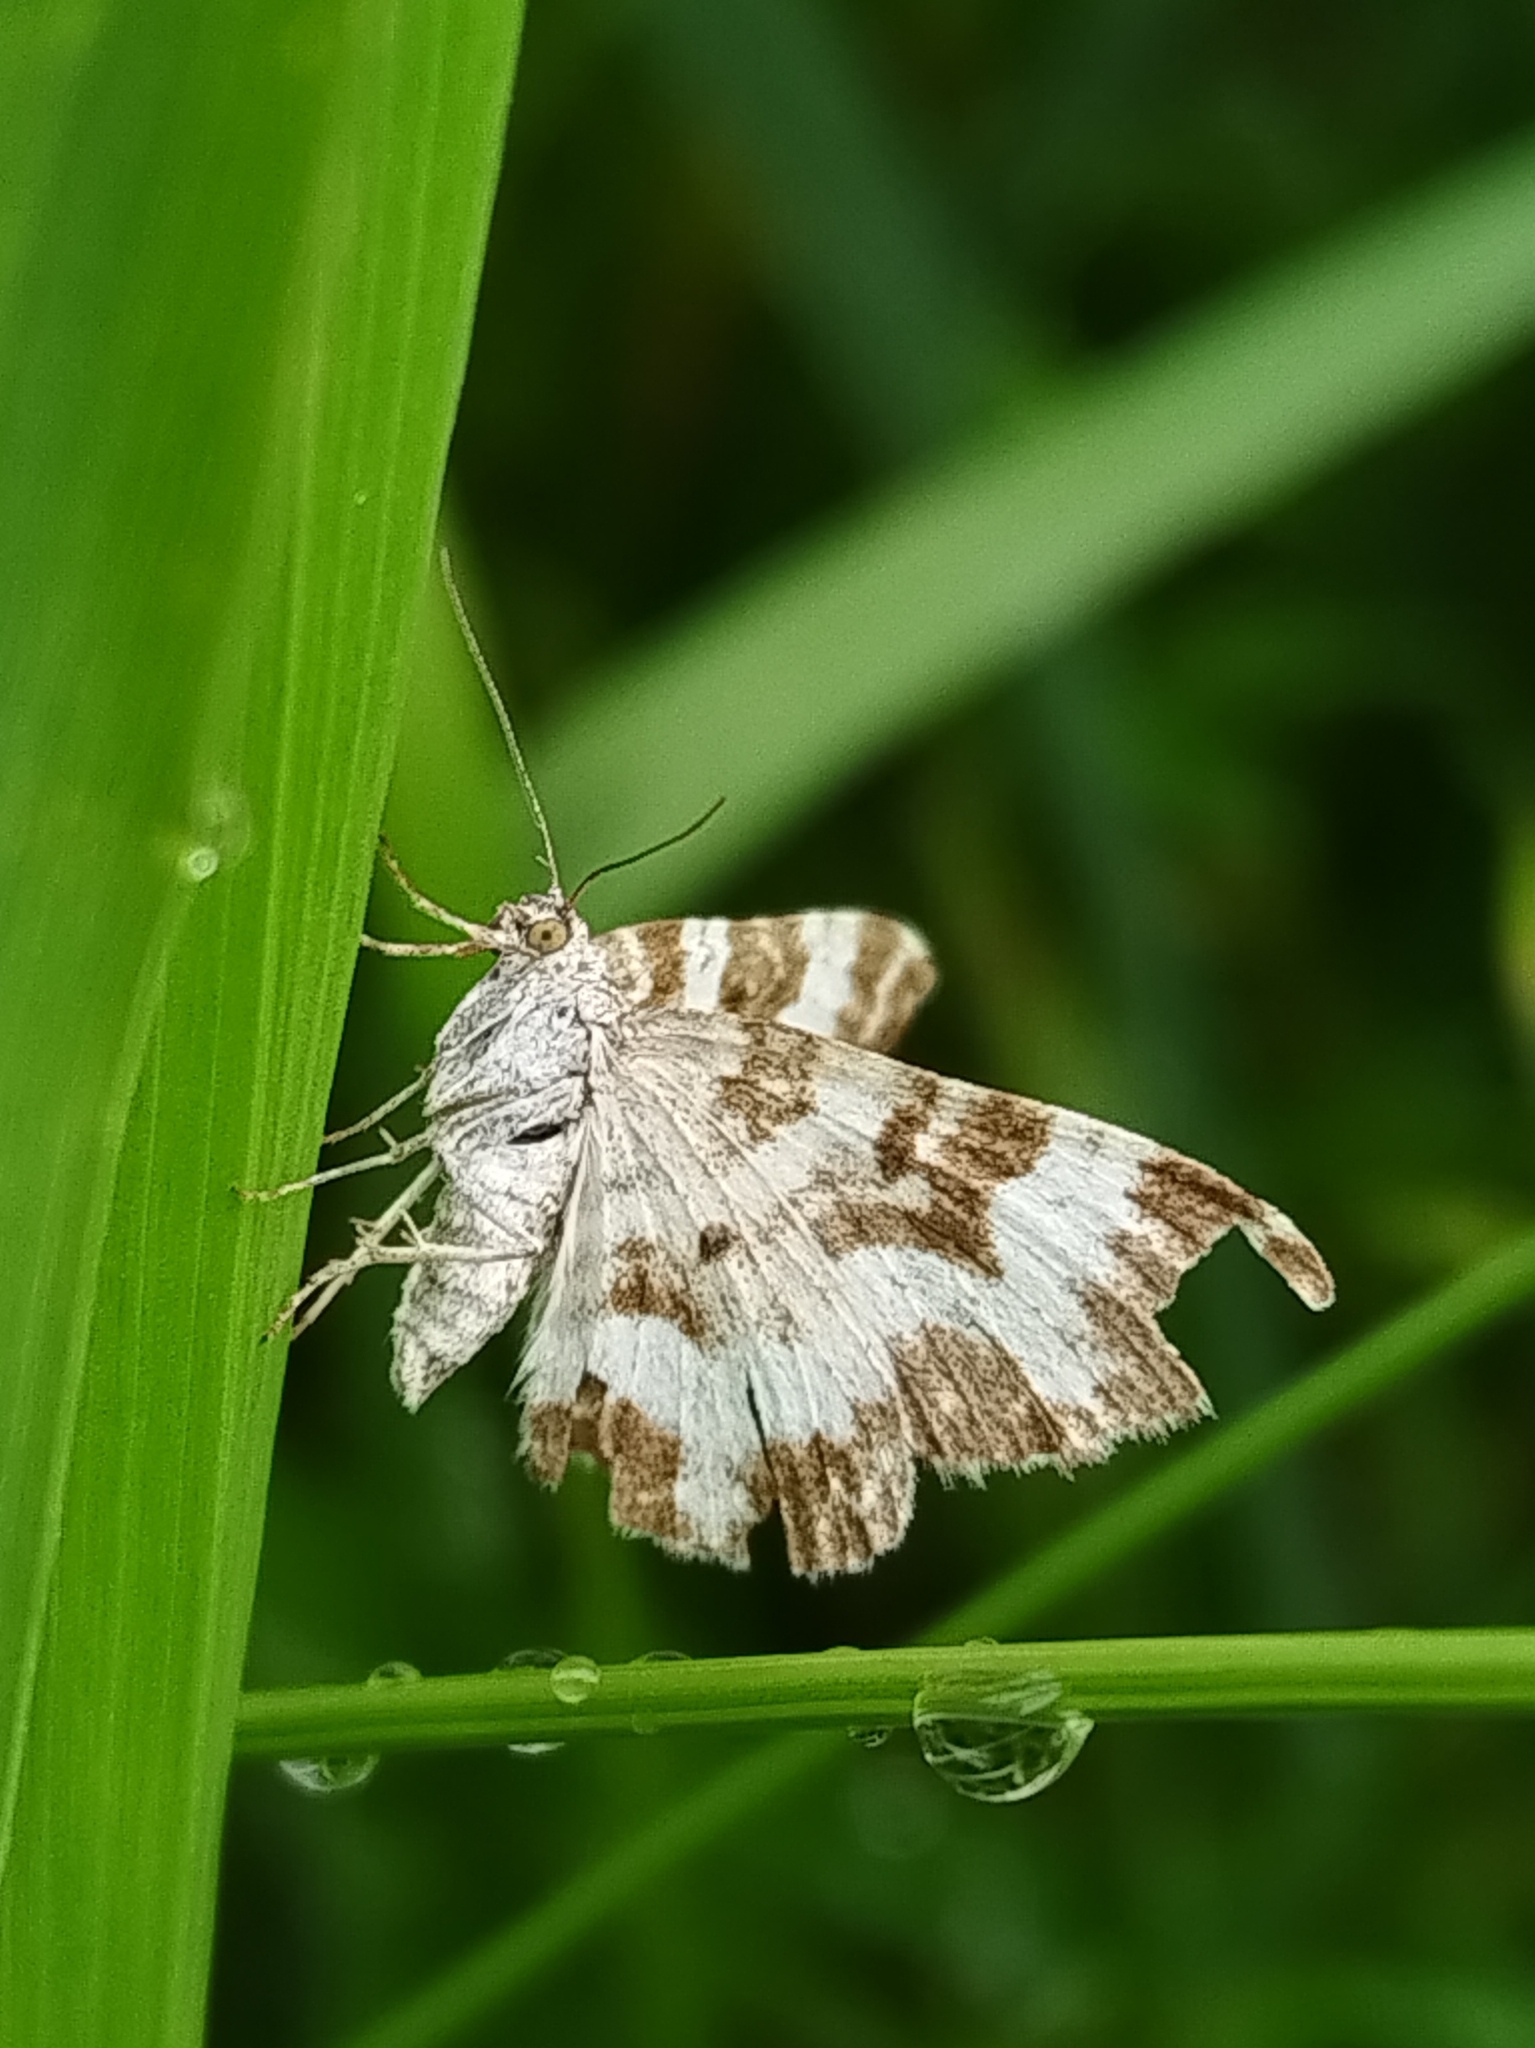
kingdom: Animalia
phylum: Arthropoda
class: Insecta
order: Lepidoptera
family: Geometridae
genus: Epirrhoe
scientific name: Epirrhoe alternata
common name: Common carpet
